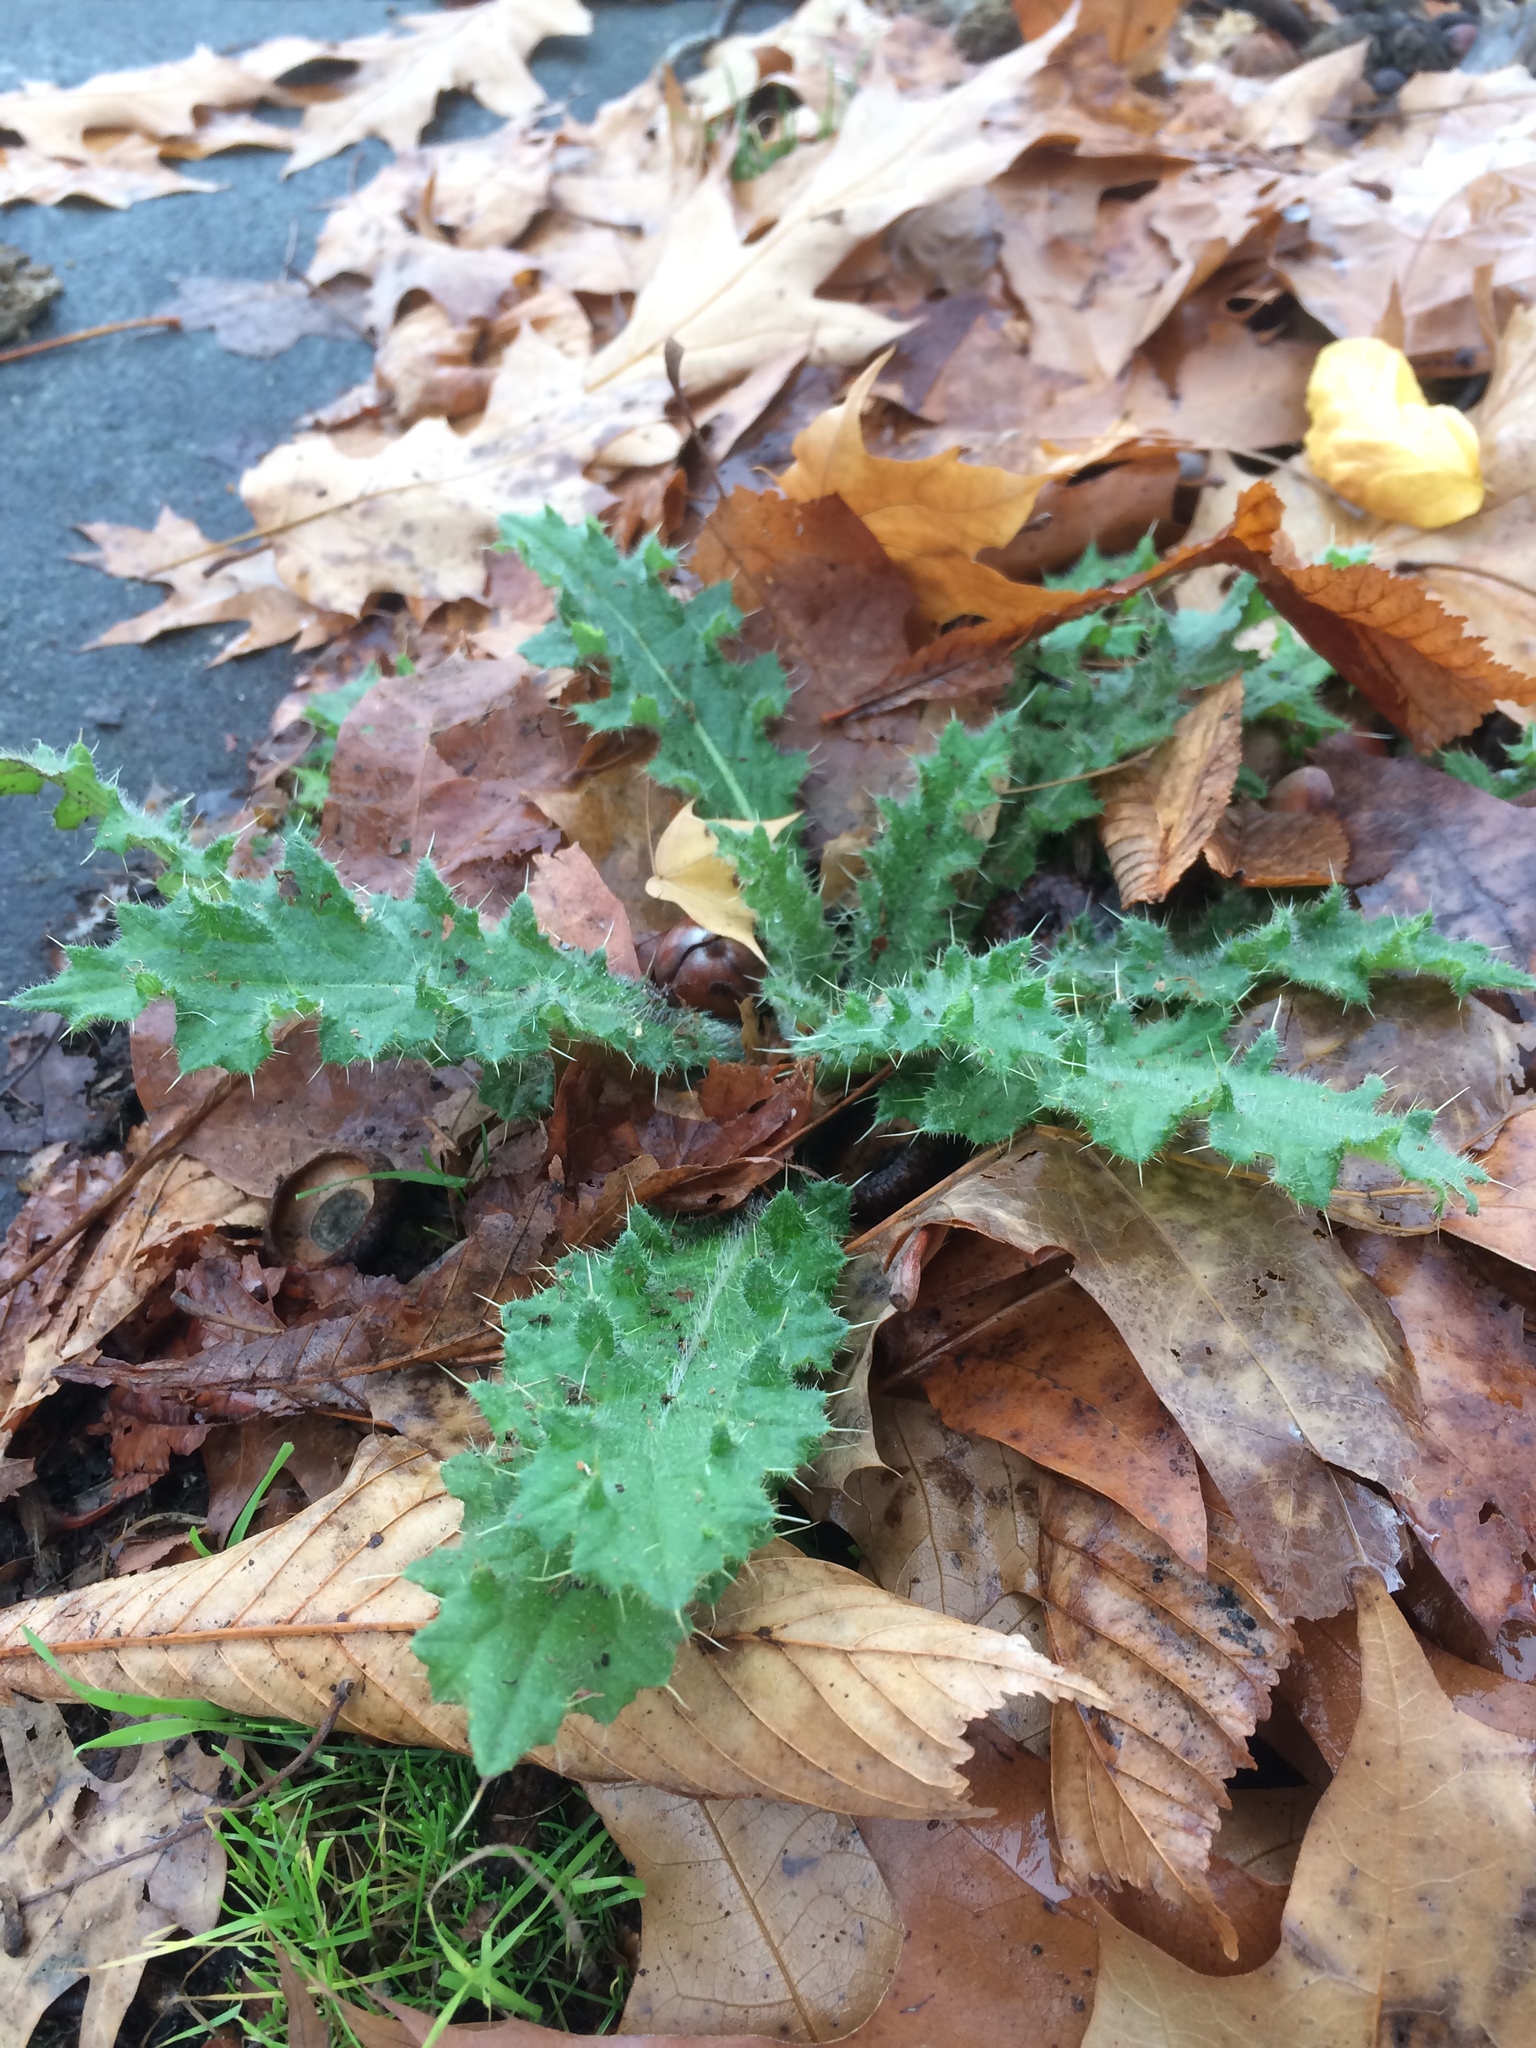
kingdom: Plantae
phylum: Tracheophyta
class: Magnoliopsida
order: Asterales
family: Asteraceae
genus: Cirsium
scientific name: Cirsium vulgare
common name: Bull thistle
